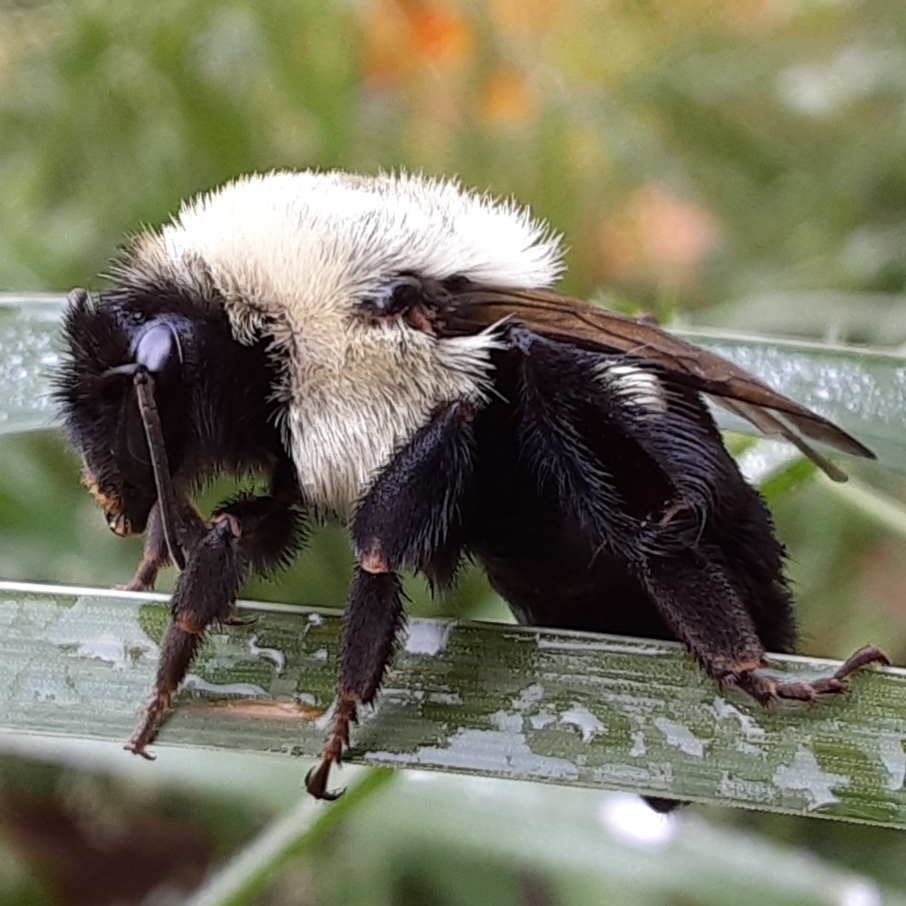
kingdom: Animalia
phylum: Arthropoda
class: Insecta
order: Hymenoptera
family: Apidae
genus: Bombus
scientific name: Bombus impatiens
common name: Common eastern bumble bee
